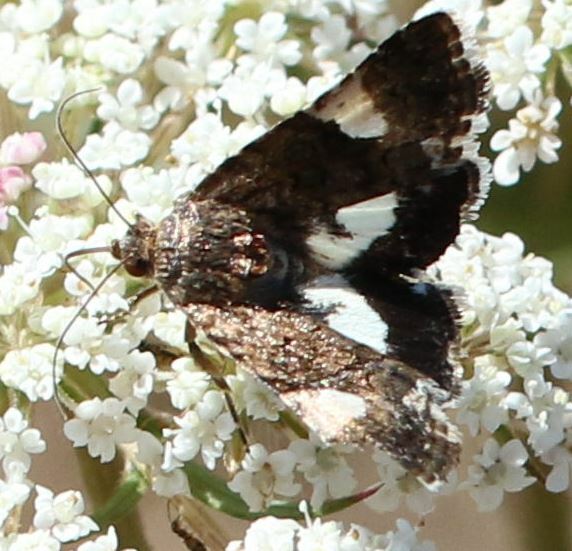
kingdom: Animalia
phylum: Arthropoda
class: Insecta
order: Lepidoptera
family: Erebidae
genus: Tyta
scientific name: Tyta luctuosa
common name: Four-spotted
